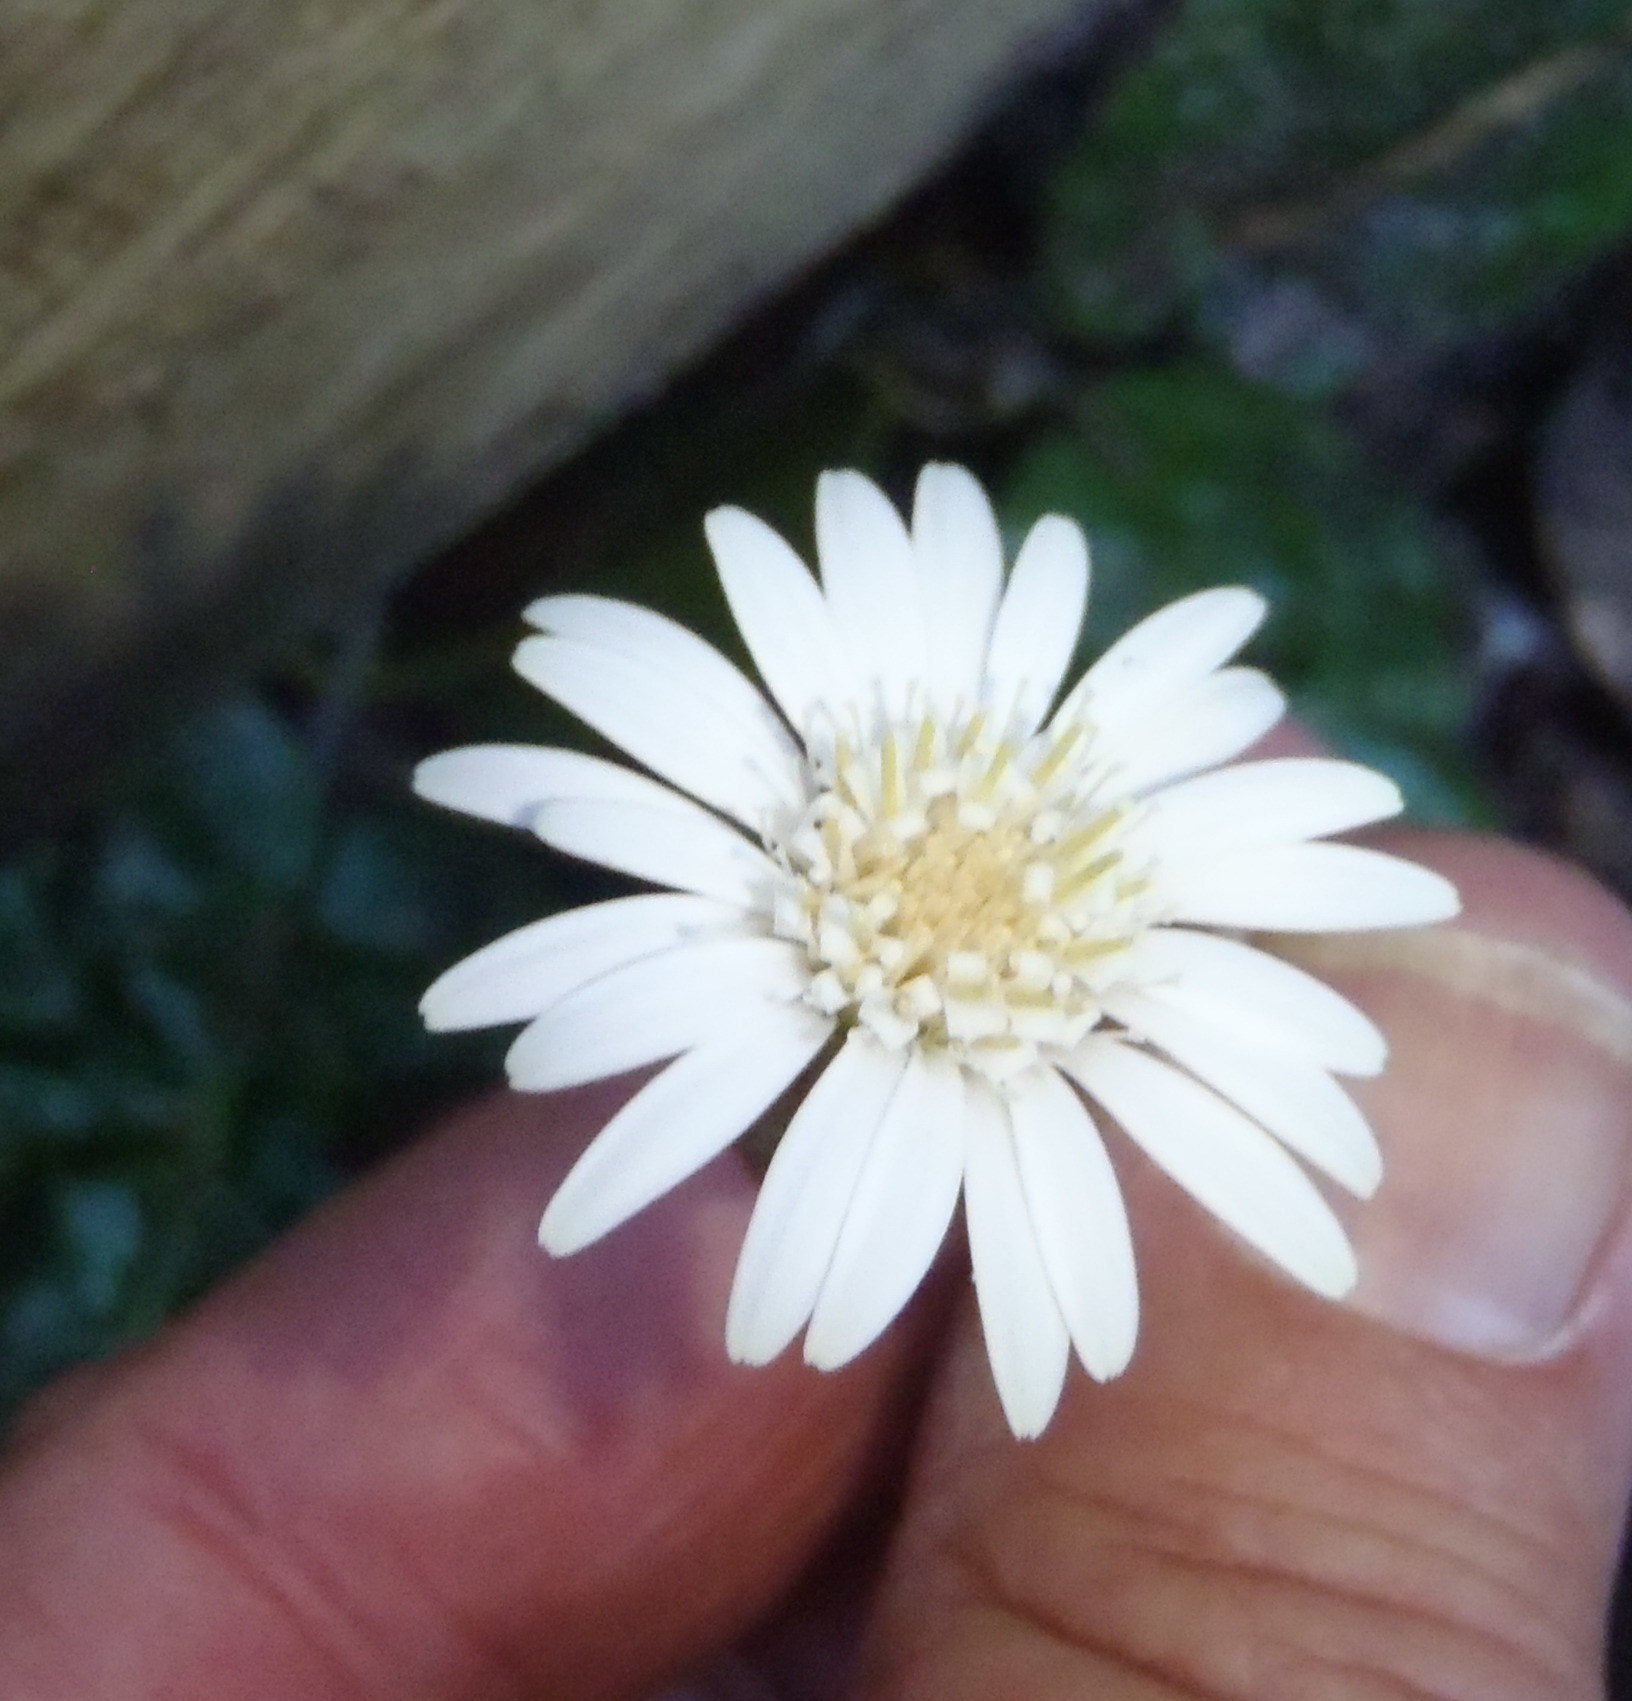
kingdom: Plantae
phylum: Tracheophyta
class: Magnoliopsida
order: Asterales
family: Asteraceae
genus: Piloselloides
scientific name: Piloselloides cordata
